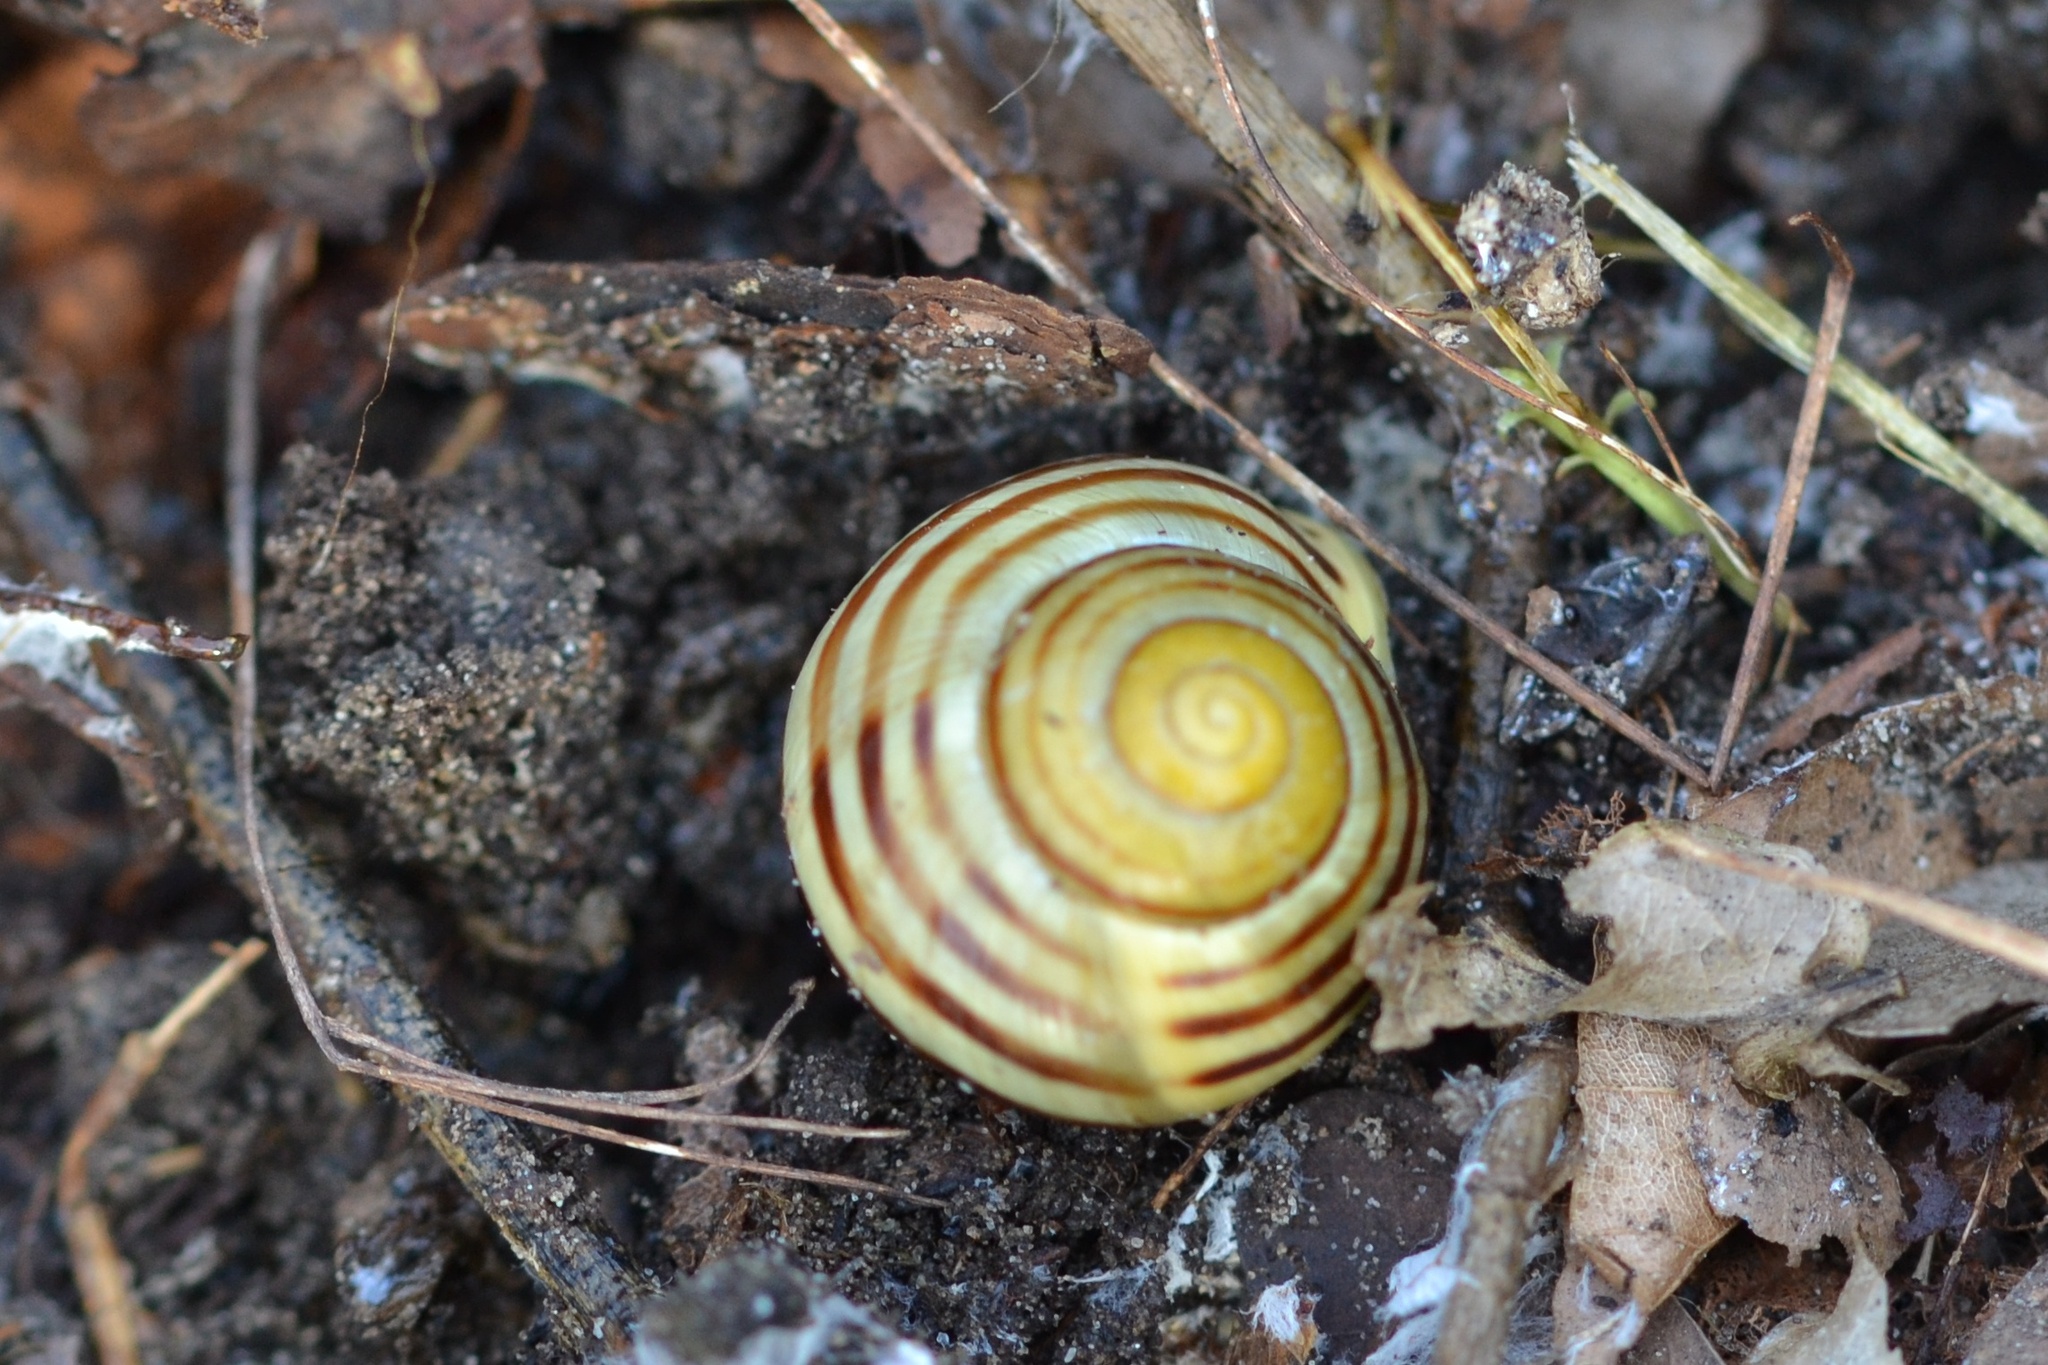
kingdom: Animalia
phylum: Mollusca
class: Gastropoda
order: Stylommatophora
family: Helicidae
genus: Cepaea
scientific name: Cepaea hortensis
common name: White-lip gardensnail
